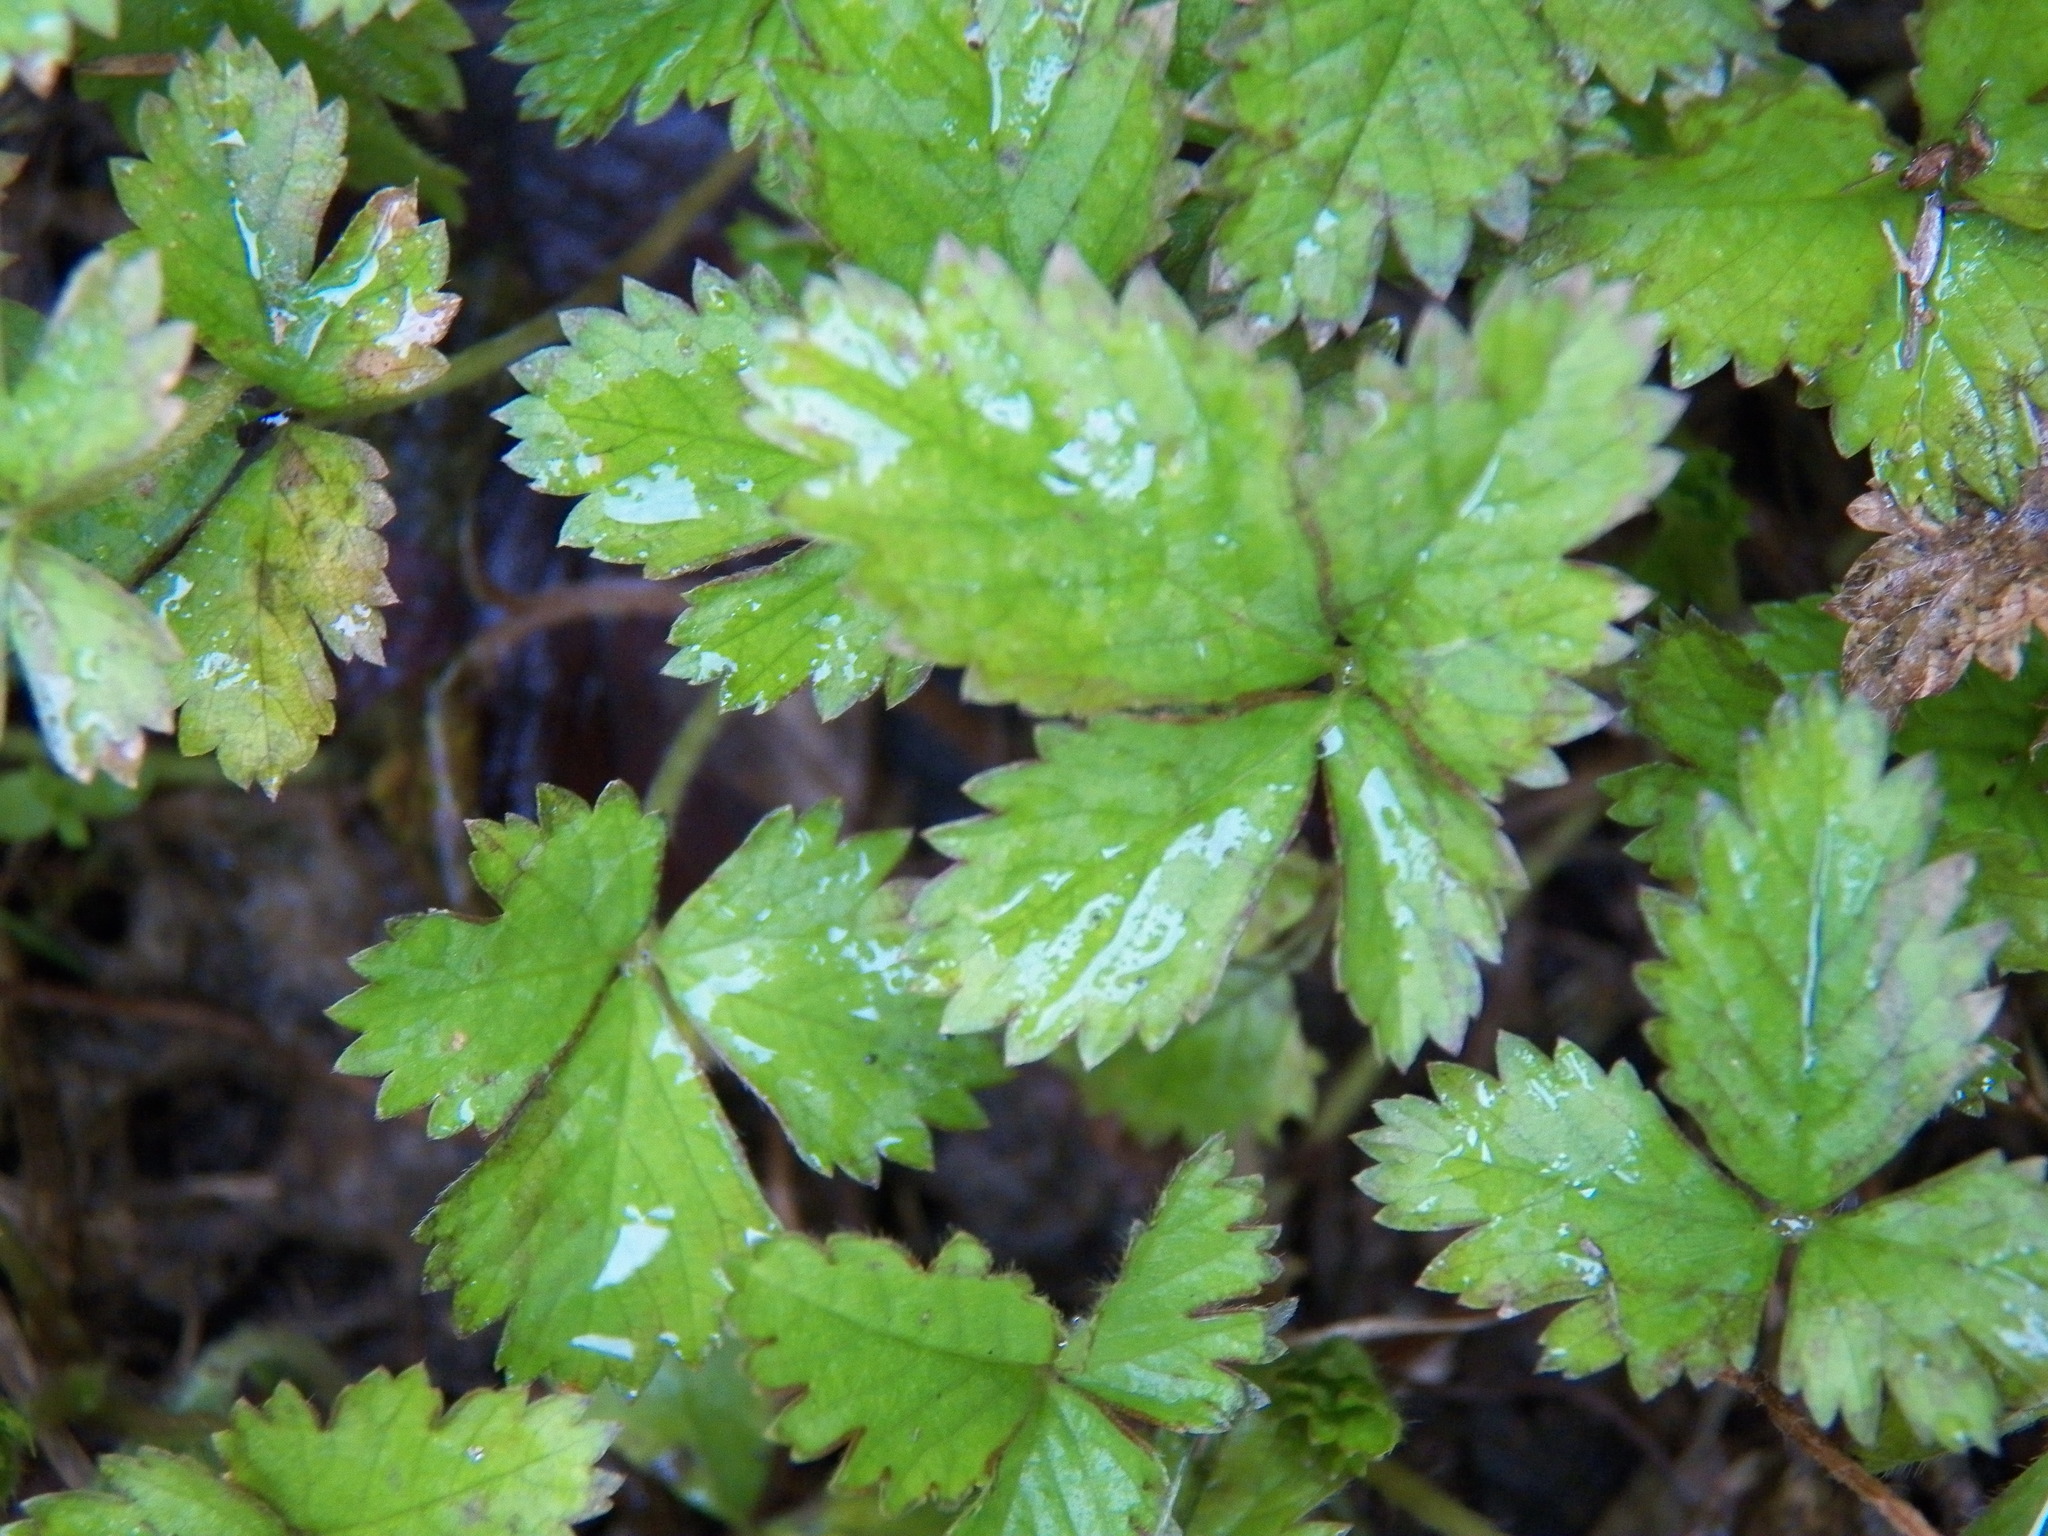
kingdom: Plantae
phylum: Tracheophyta
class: Magnoliopsida
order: Rosales
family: Rosaceae
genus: Potentilla
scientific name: Potentilla indica
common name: Yellow-flowered strawberry
